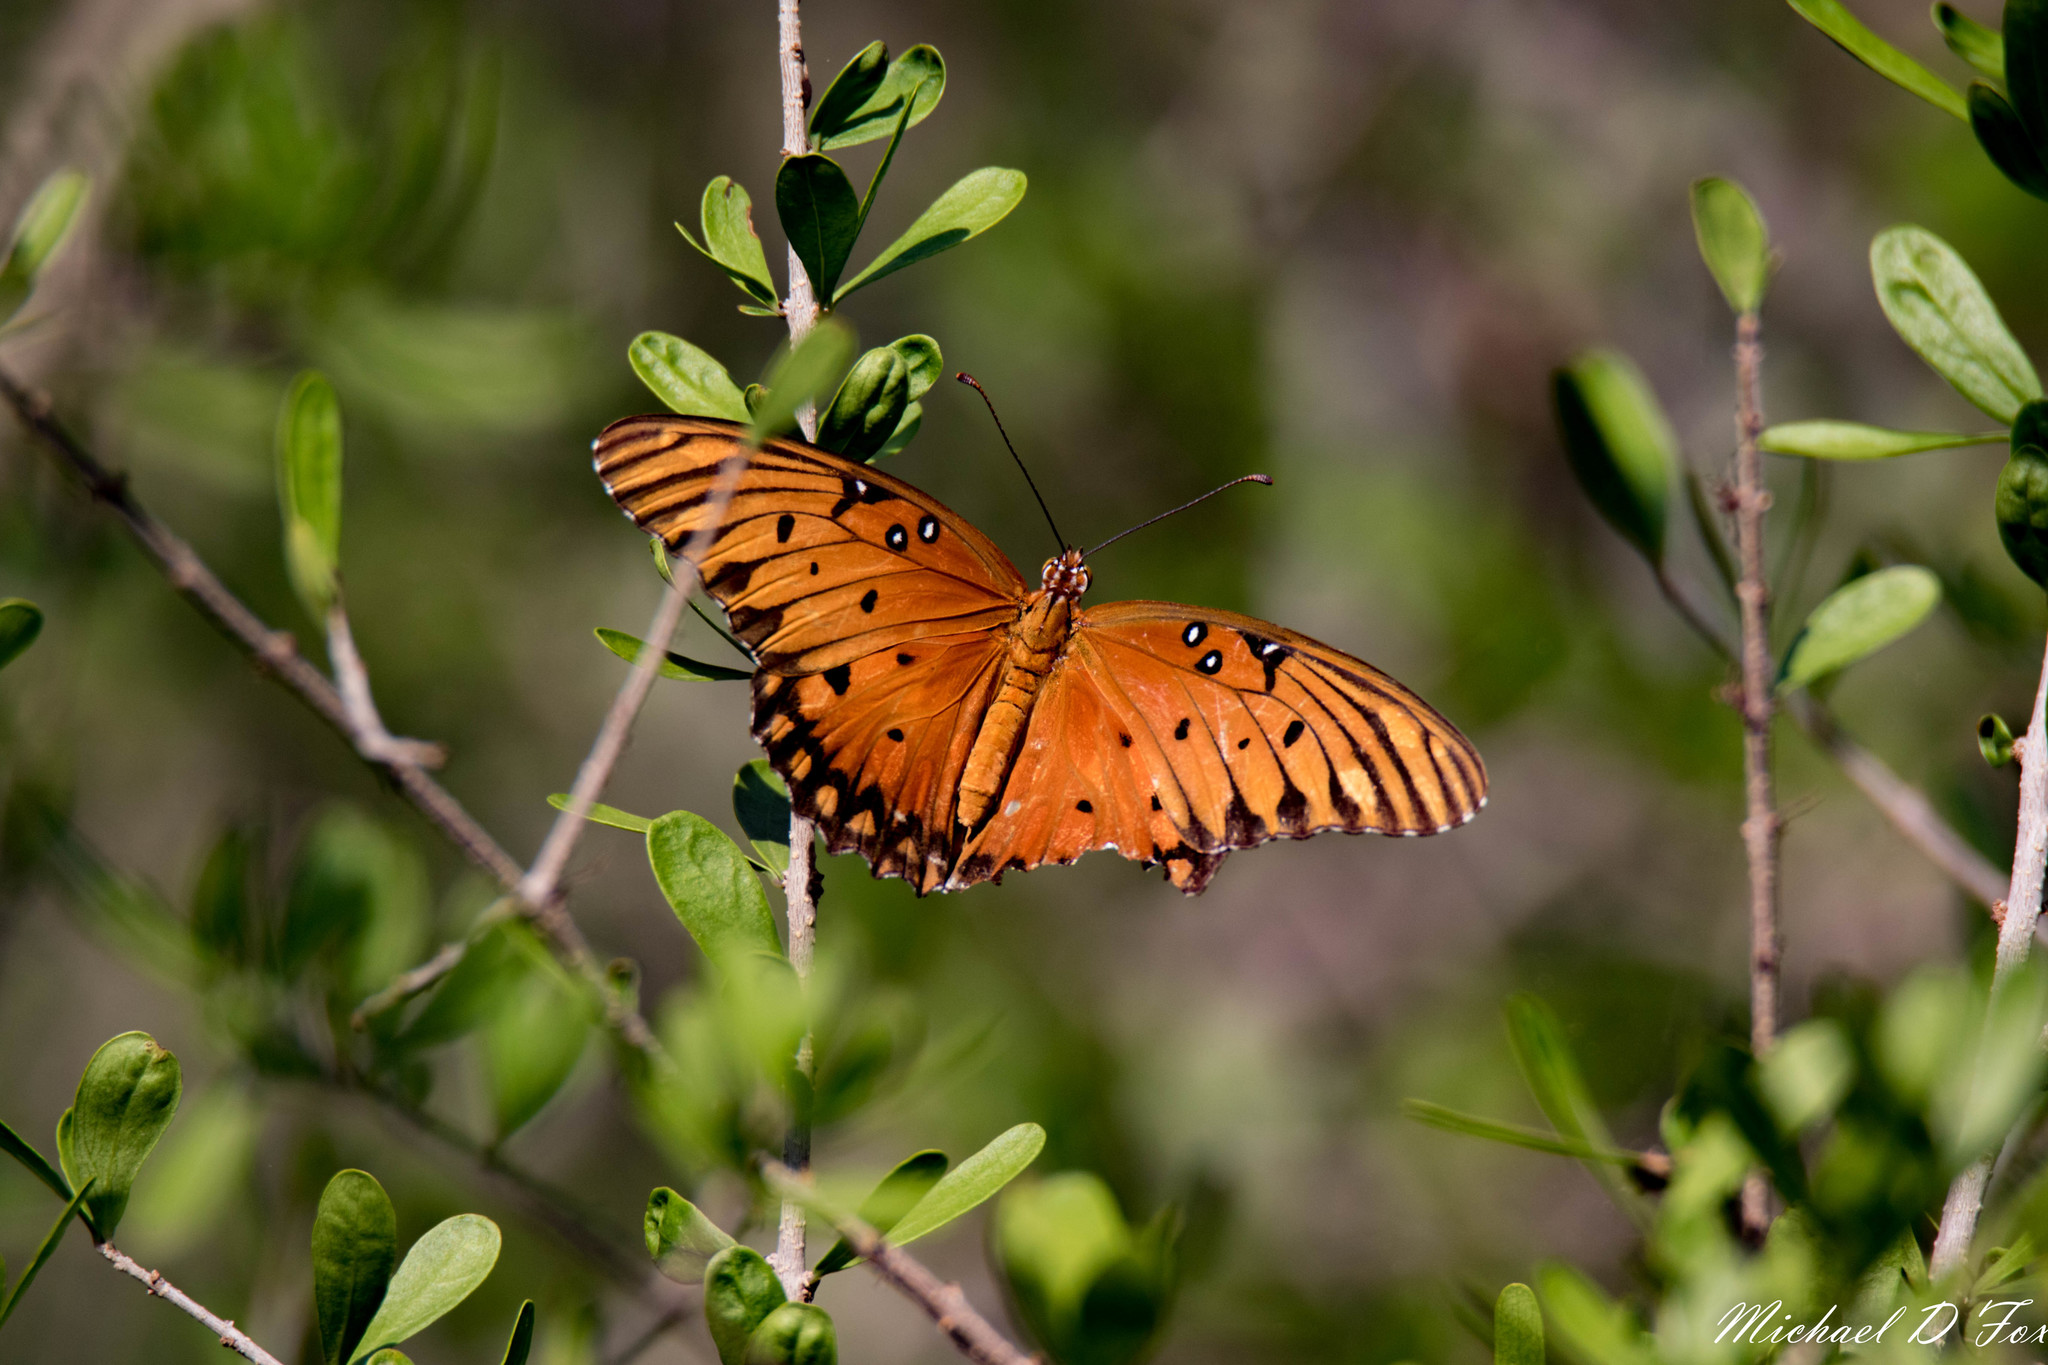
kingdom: Animalia
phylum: Arthropoda
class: Insecta
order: Lepidoptera
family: Nymphalidae
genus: Dione
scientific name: Dione vanillae
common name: Gulf fritillary
